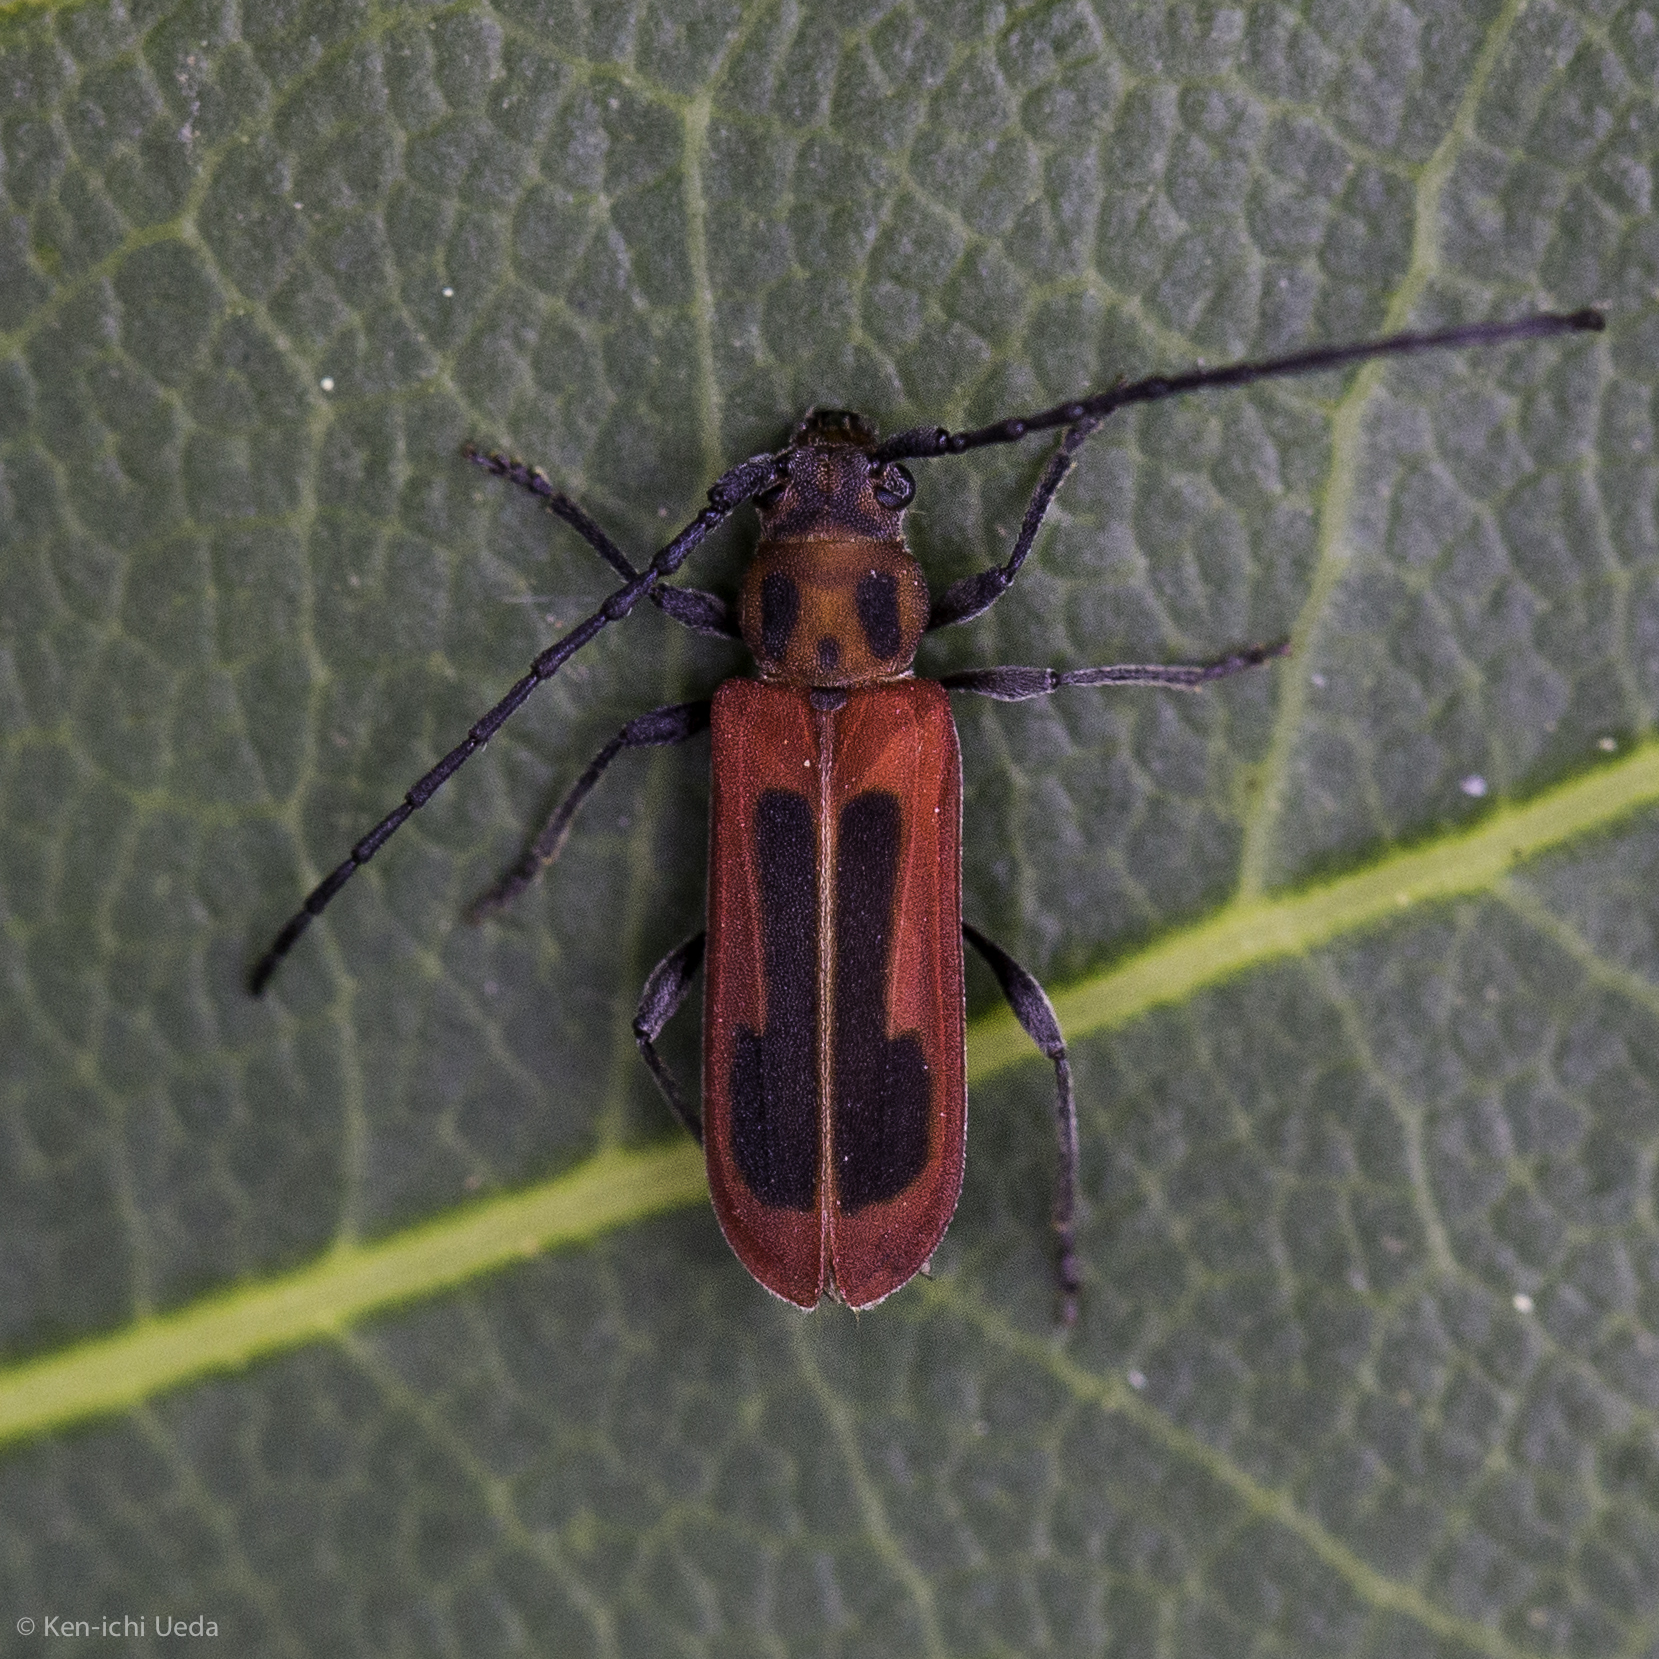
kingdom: Animalia
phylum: Arthropoda
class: Insecta
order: Coleoptera
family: Cerambycidae
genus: Holopleura
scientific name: Holopleura marginata
